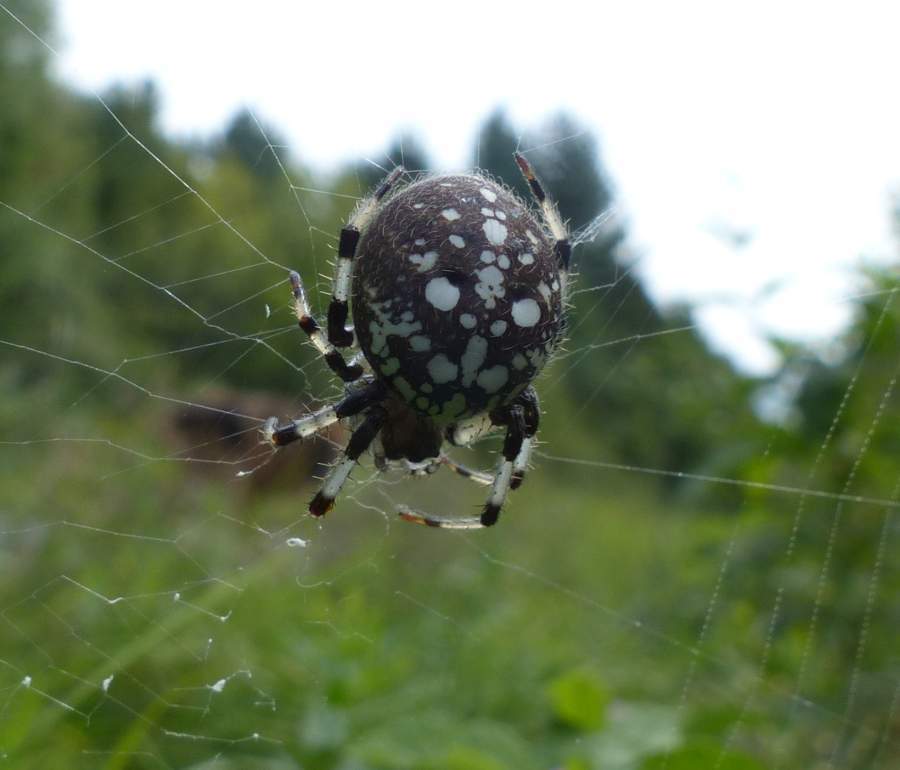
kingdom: Animalia
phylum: Arthropoda
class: Arachnida
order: Araneae
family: Araneidae
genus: Araneus
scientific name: Araneus trifolium
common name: Shamrock orbweaver
